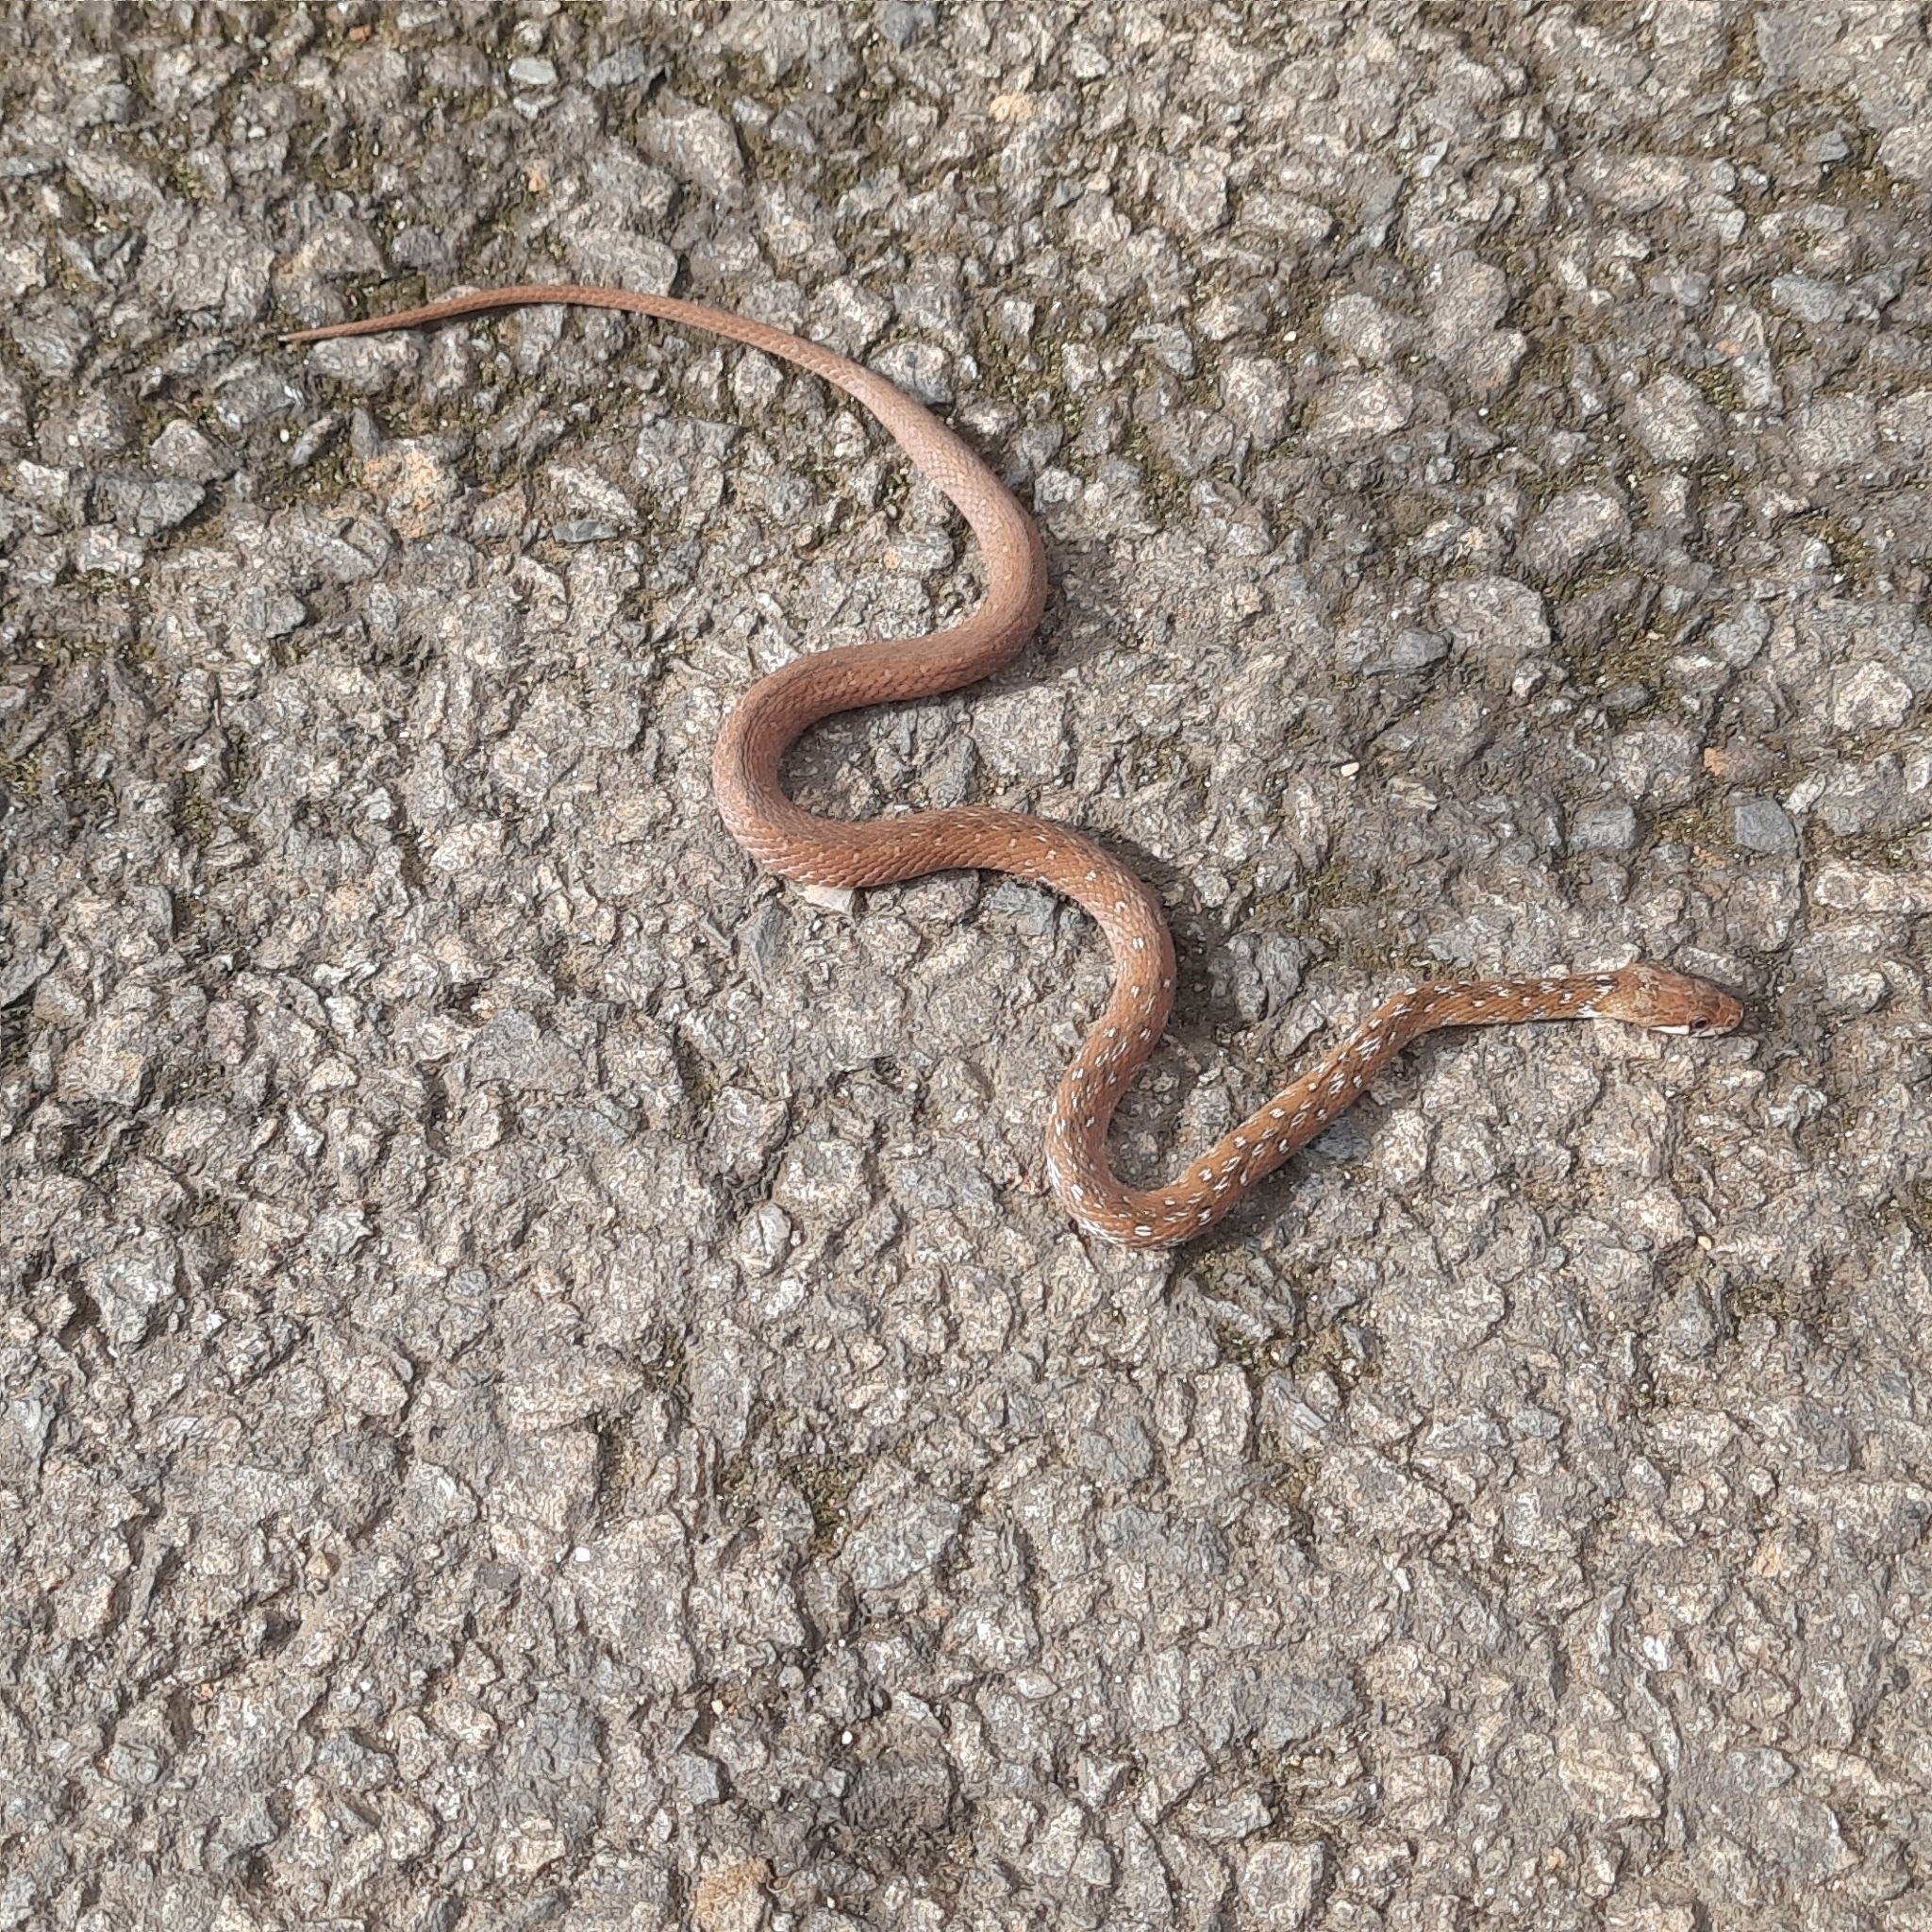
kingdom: Animalia
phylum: Chordata
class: Squamata
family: Colubridae
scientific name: Colubridae
